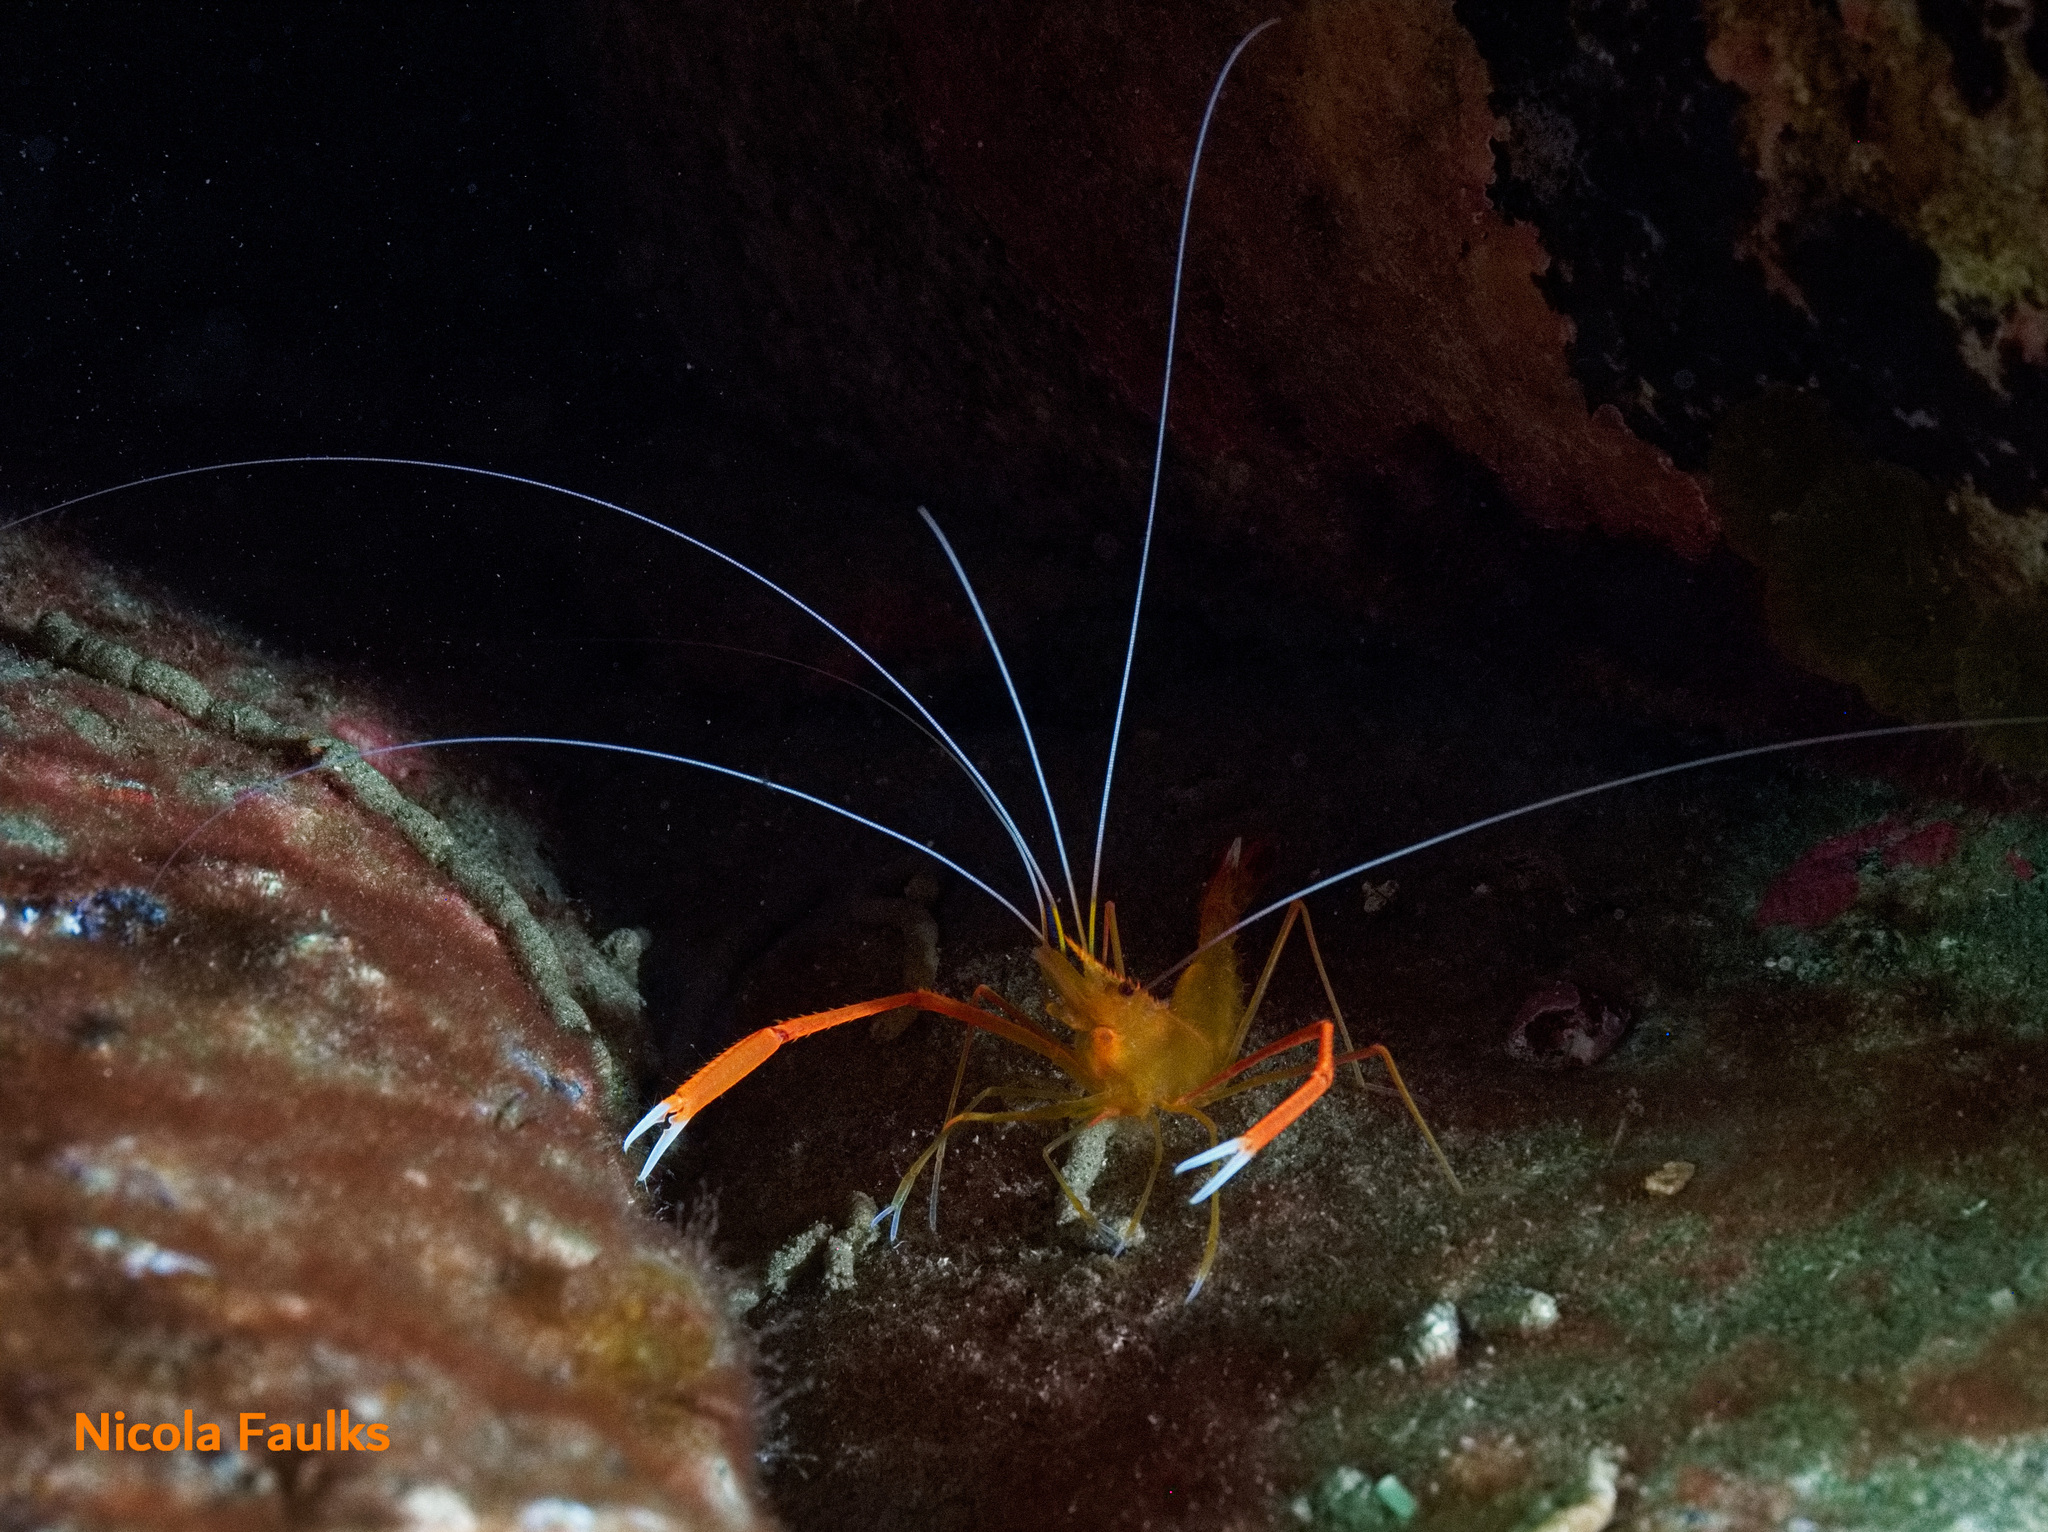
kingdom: Animalia
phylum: Arthropoda
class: Malacostraca
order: Decapoda
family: Stenopodidae
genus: Stenopus
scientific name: Stenopus spinosus
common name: Golden coral shrimp
